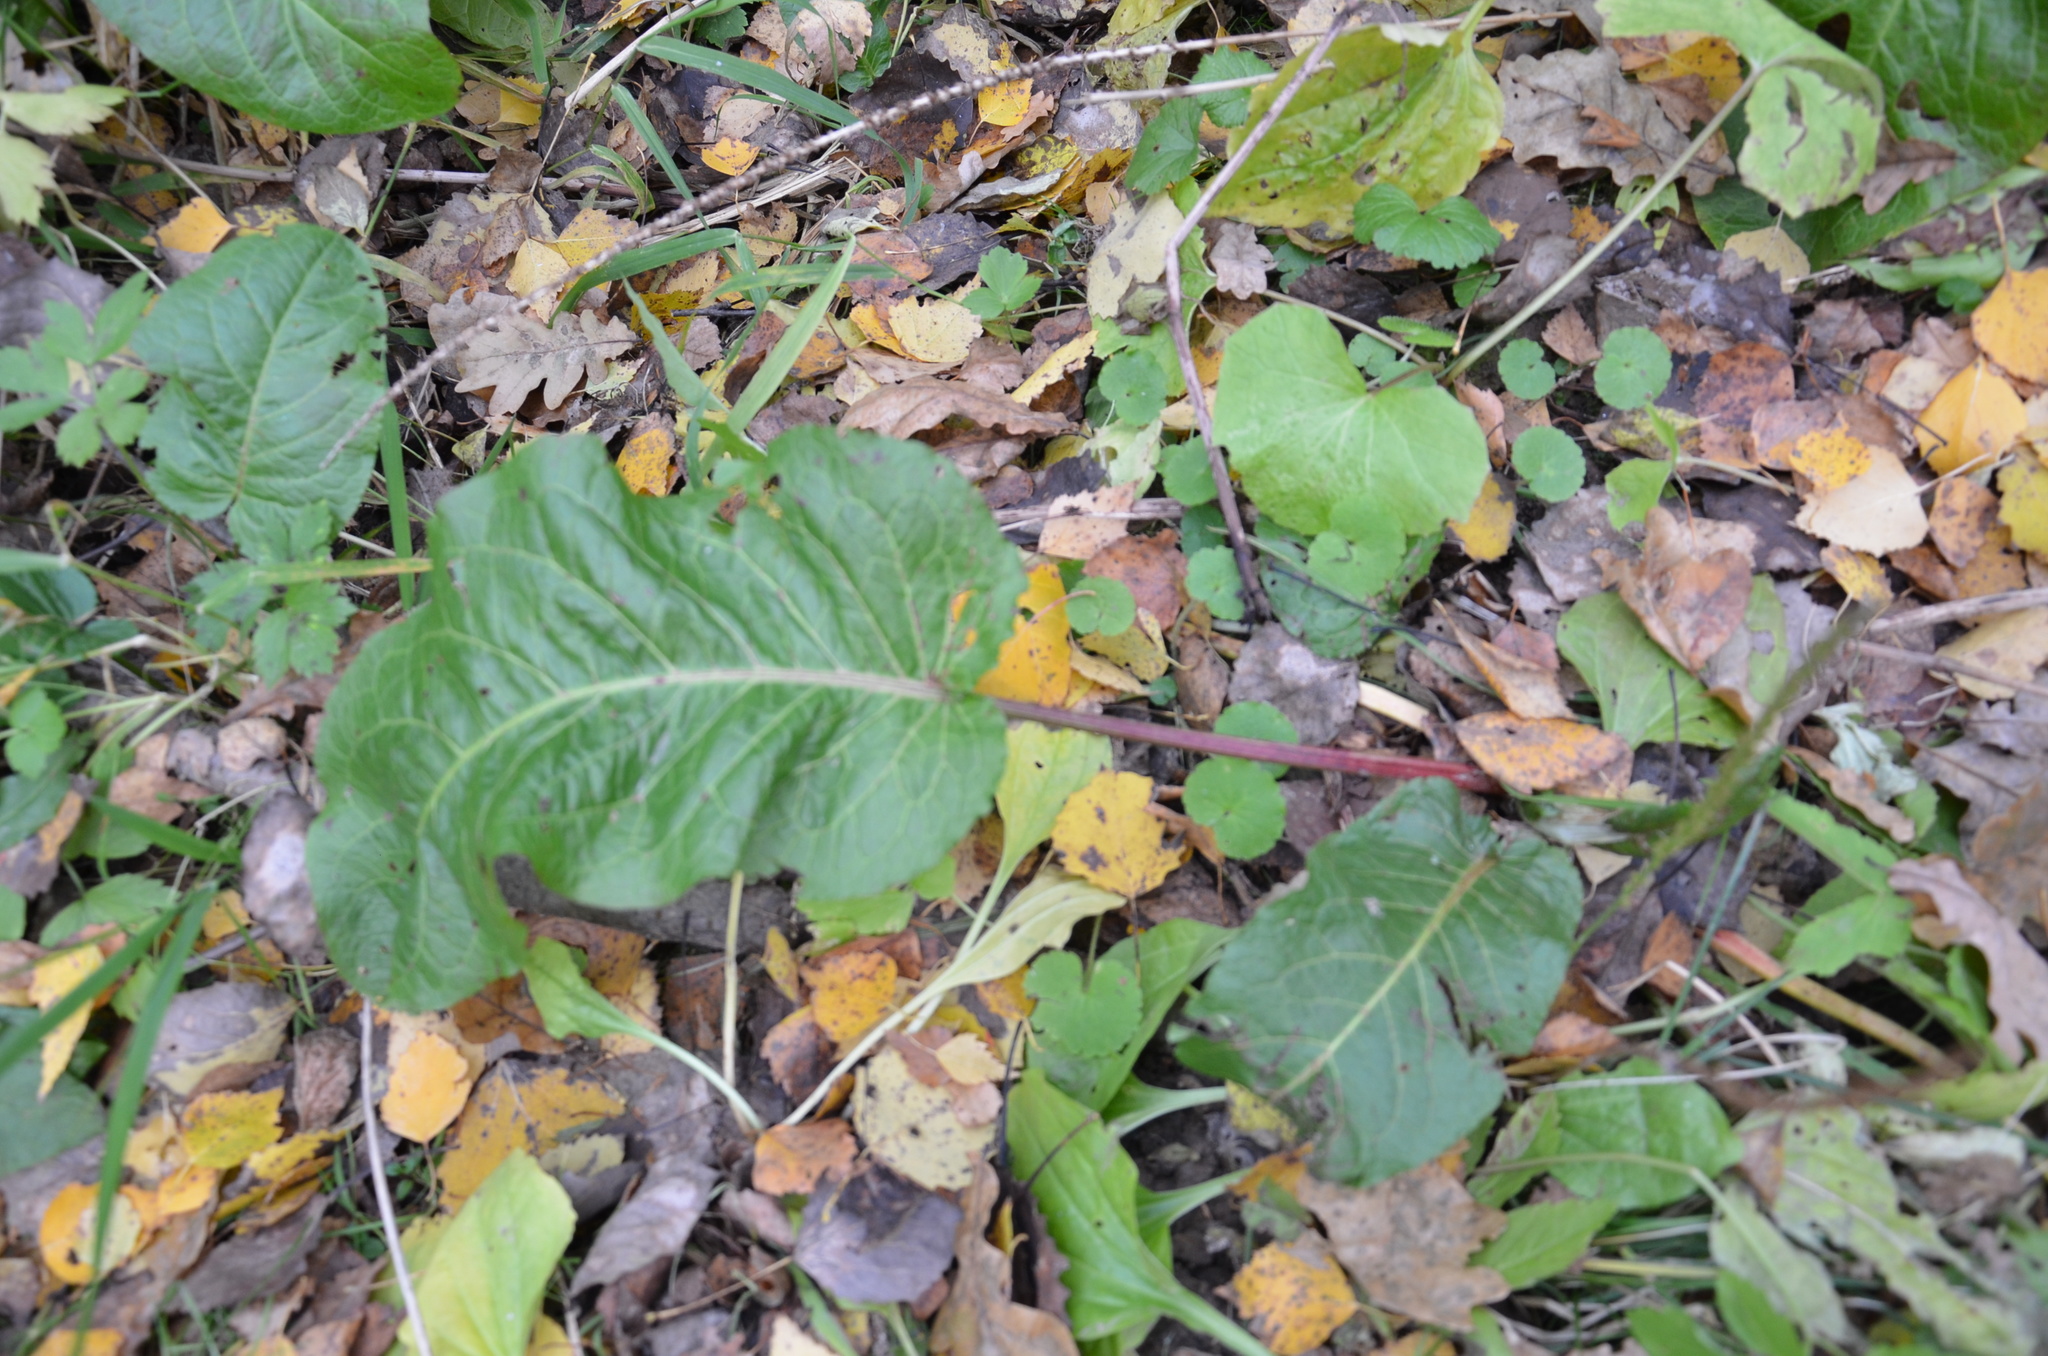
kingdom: Plantae
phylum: Tracheophyta
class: Magnoliopsida
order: Caryophyllales
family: Polygonaceae
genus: Rumex
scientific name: Rumex obtusifolius
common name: Bitter dock
